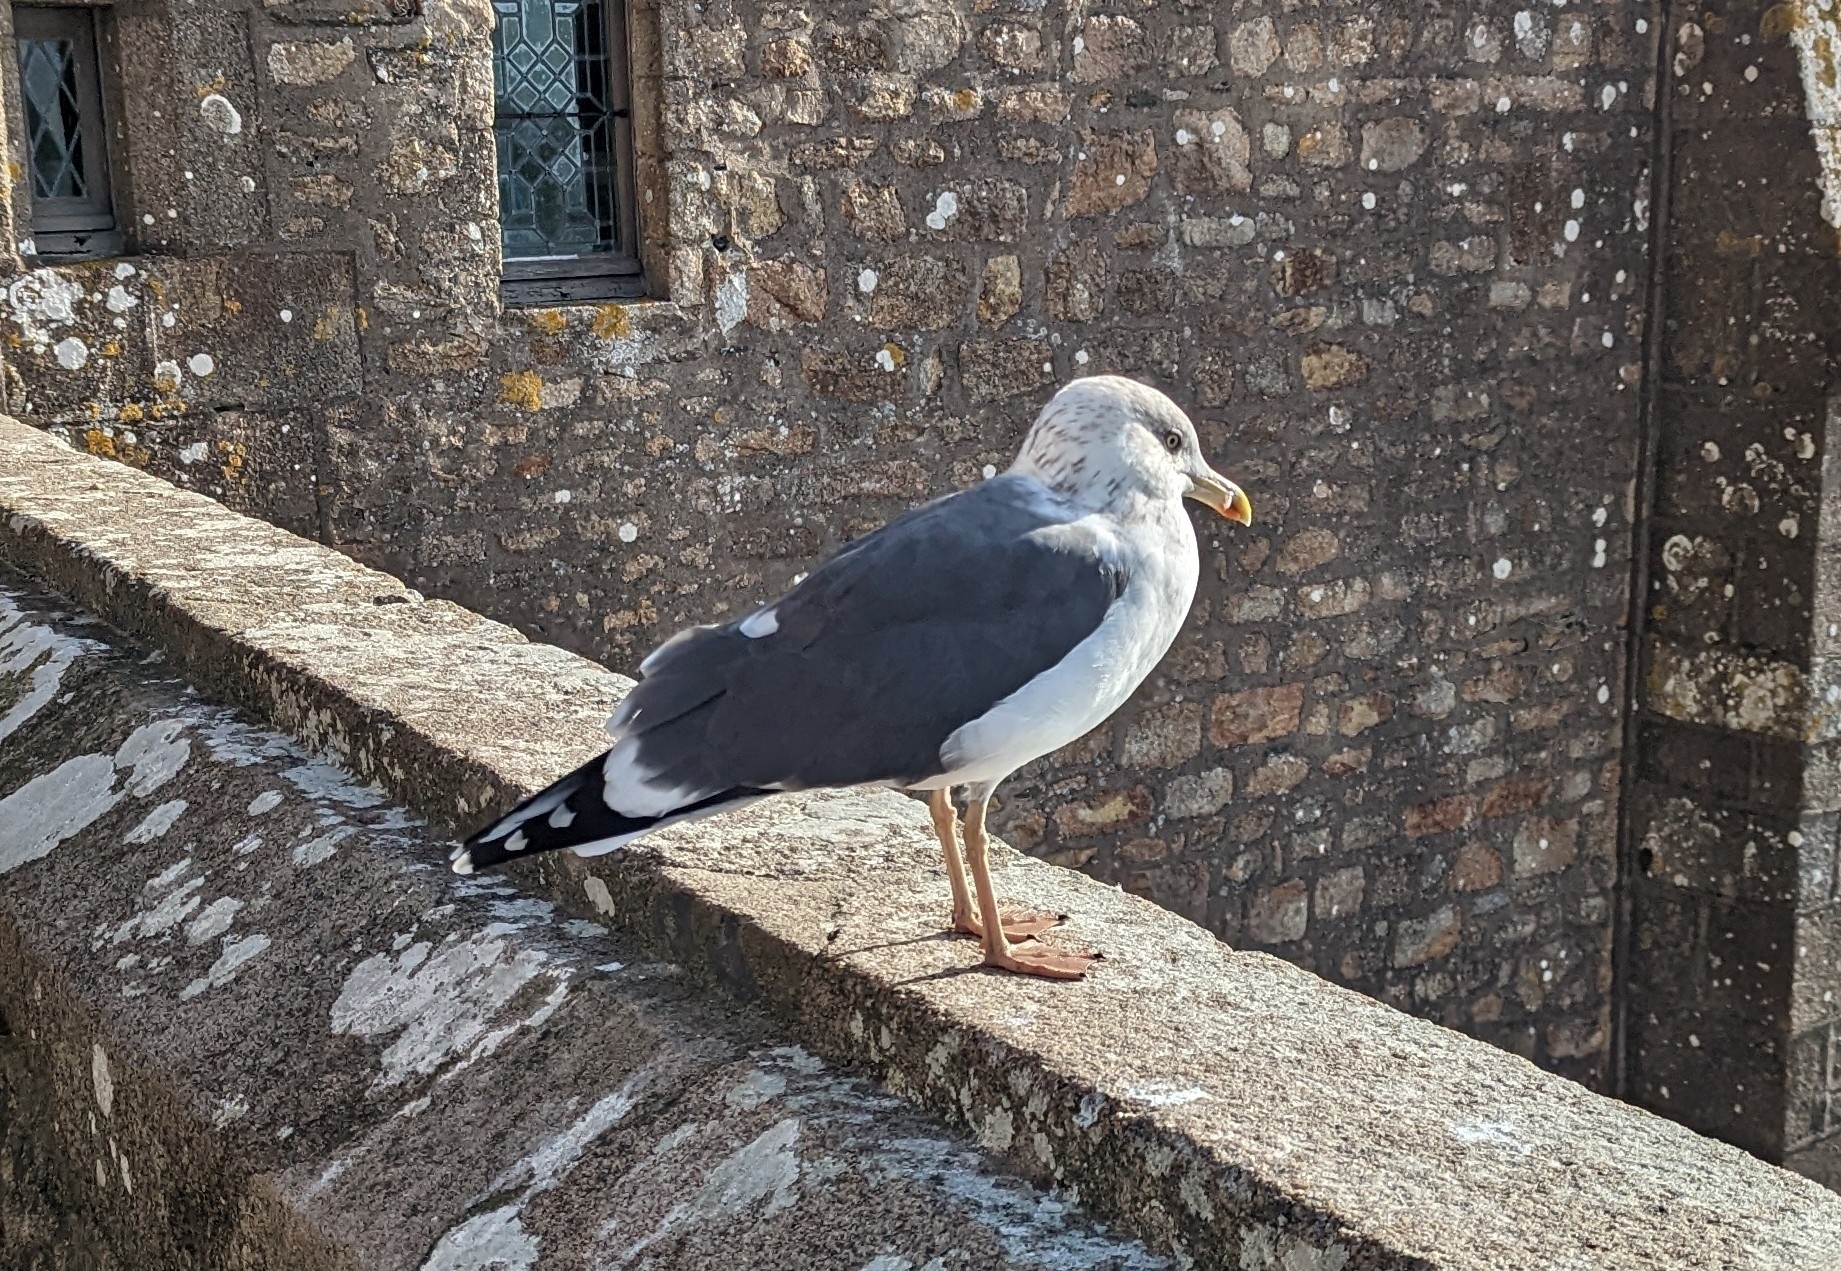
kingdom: Animalia
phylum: Chordata
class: Aves
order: Charadriiformes
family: Laridae
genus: Larus
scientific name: Larus fuscus
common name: Lesser black-backed gull
